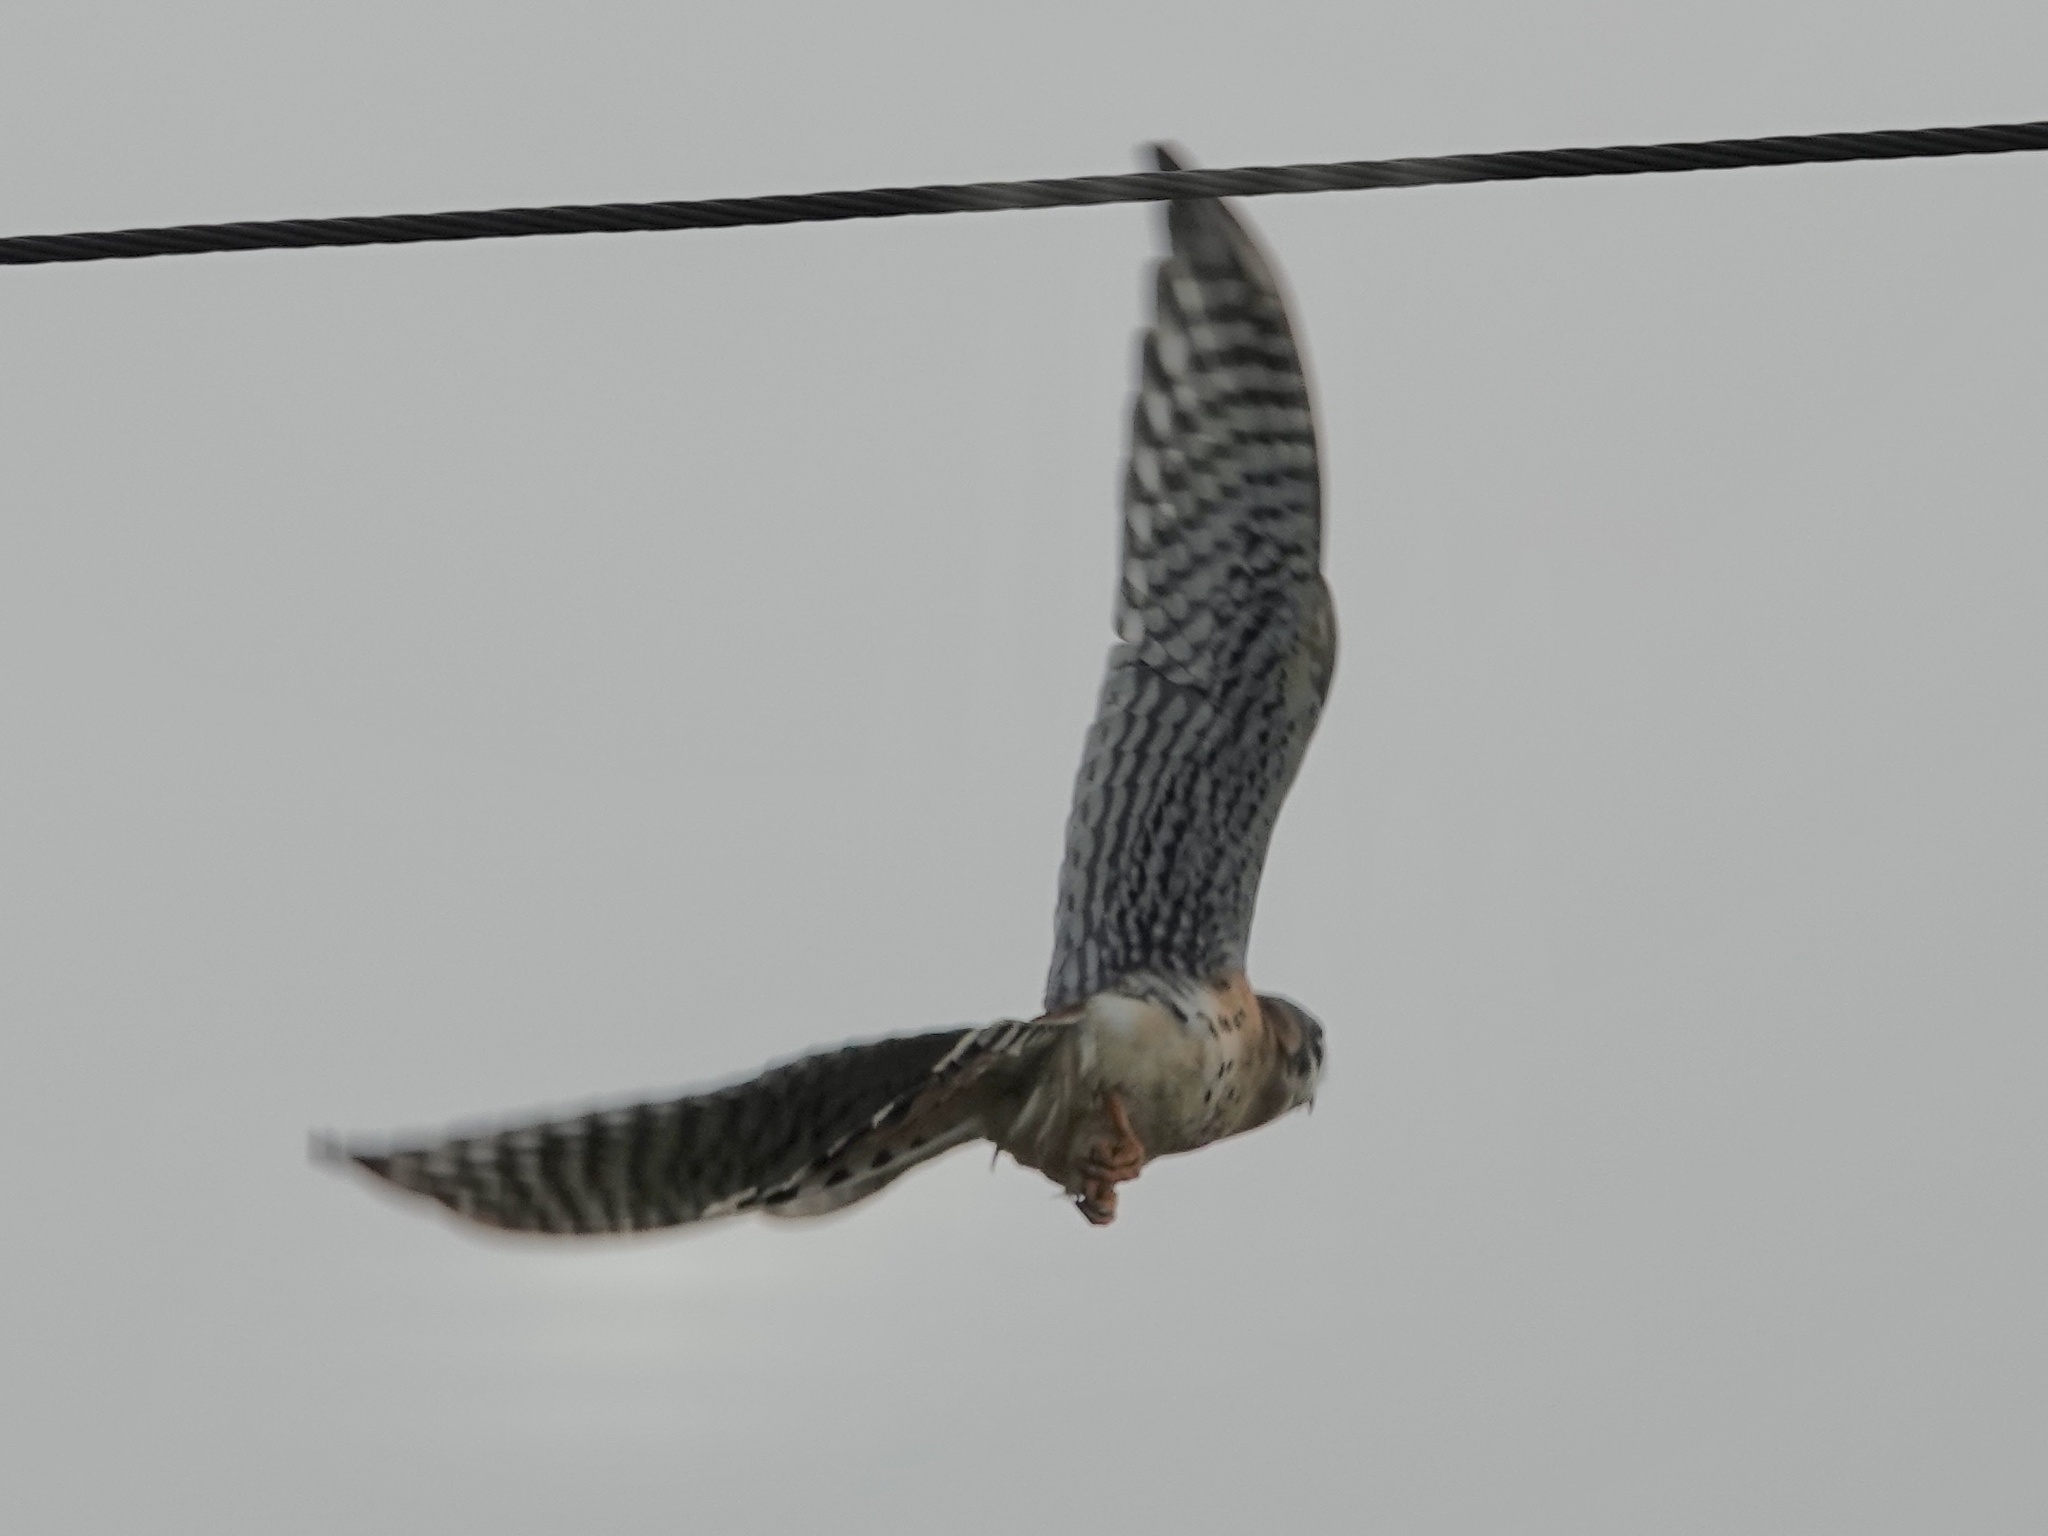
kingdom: Animalia
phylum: Chordata
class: Aves
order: Falconiformes
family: Falconidae
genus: Falco
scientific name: Falco sparverius
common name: American kestrel
